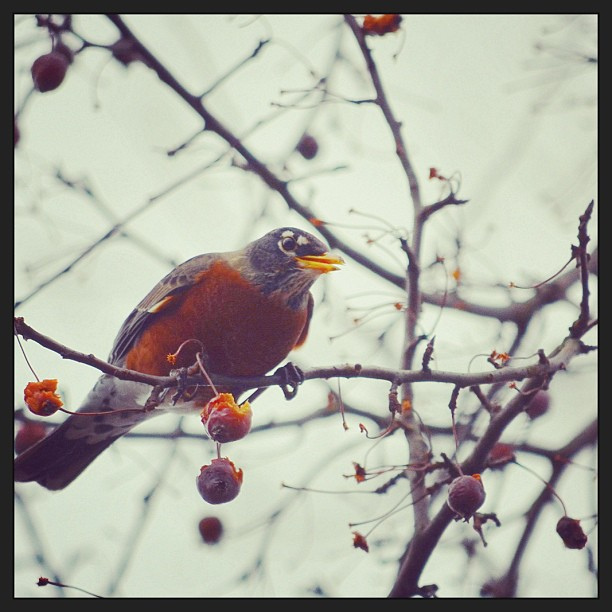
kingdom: Animalia
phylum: Chordata
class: Aves
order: Passeriformes
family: Turdidae
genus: Turdus
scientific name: Turdus migratorius
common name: American robin
